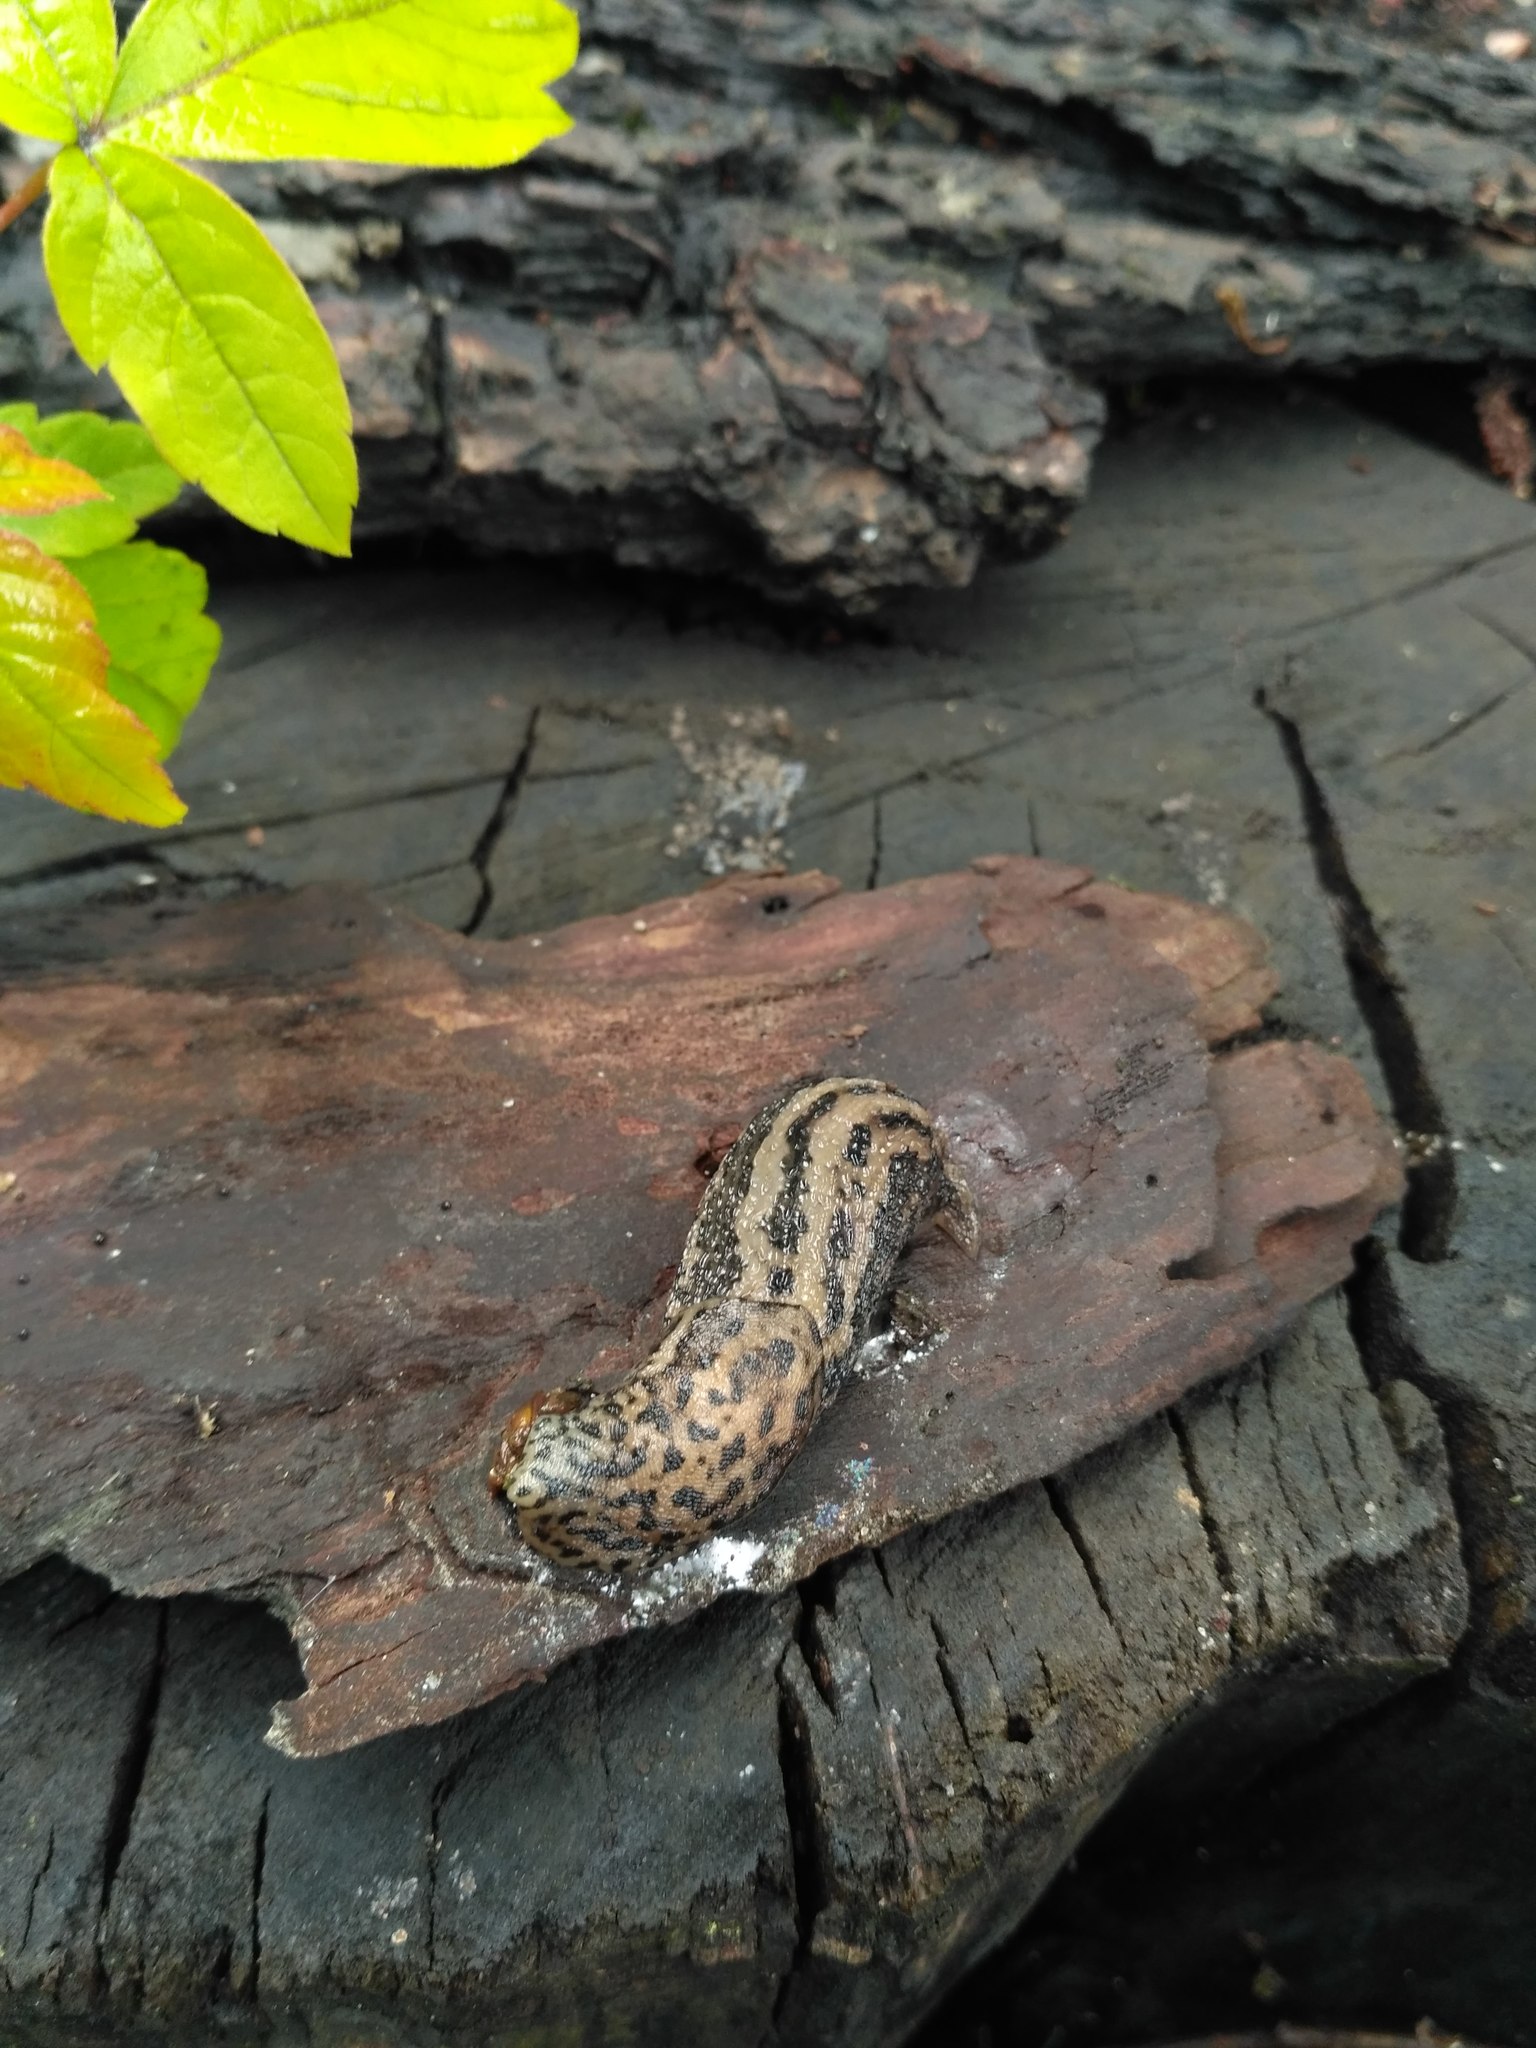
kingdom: Animalia
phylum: Mollusca
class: Gastropoda
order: Stylommatophora
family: Limacidae
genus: Limax
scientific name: Limax maximus
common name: Great grey slug
